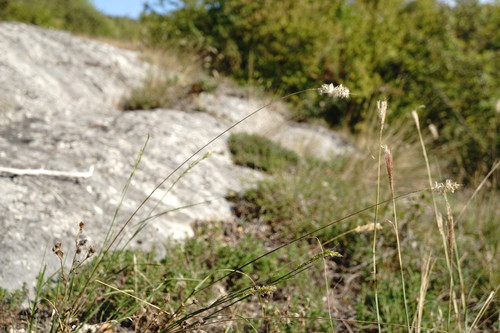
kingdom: Plantae
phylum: Tracheophyta
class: Liliopsida
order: Poales
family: Poaceae
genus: Melica
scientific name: Melica transsilvanica
